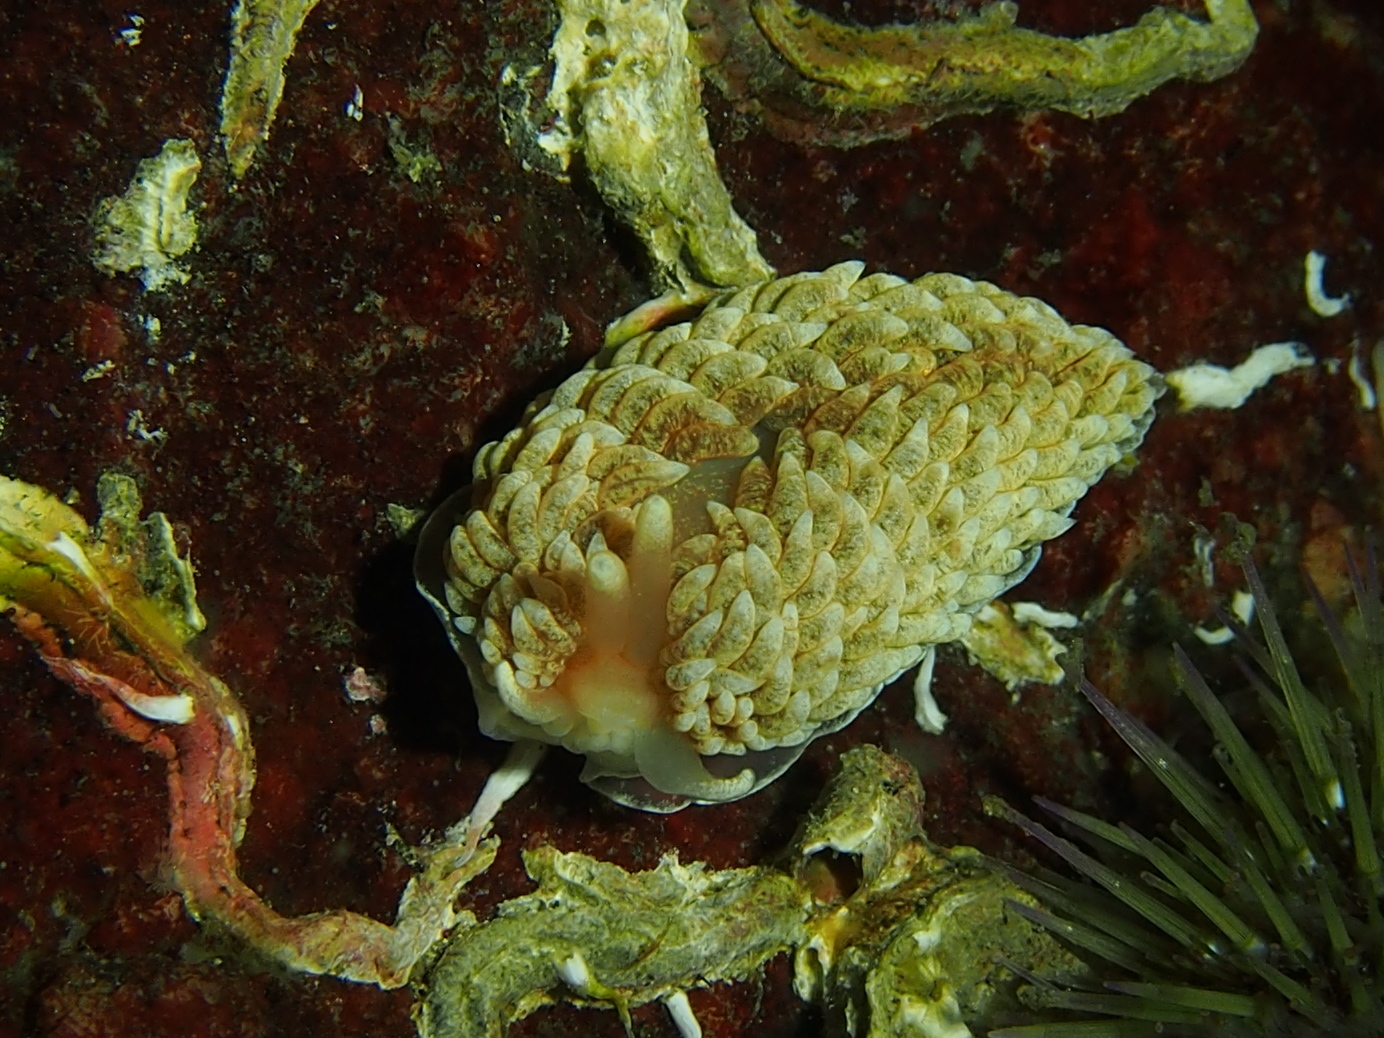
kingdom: Animalia
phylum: Mollusca
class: Gastropoda
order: Nudibranchia
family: Aeolidiidae
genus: Aeolidiella
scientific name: Aeolidiella glauca
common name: Orange-brown aeolid
